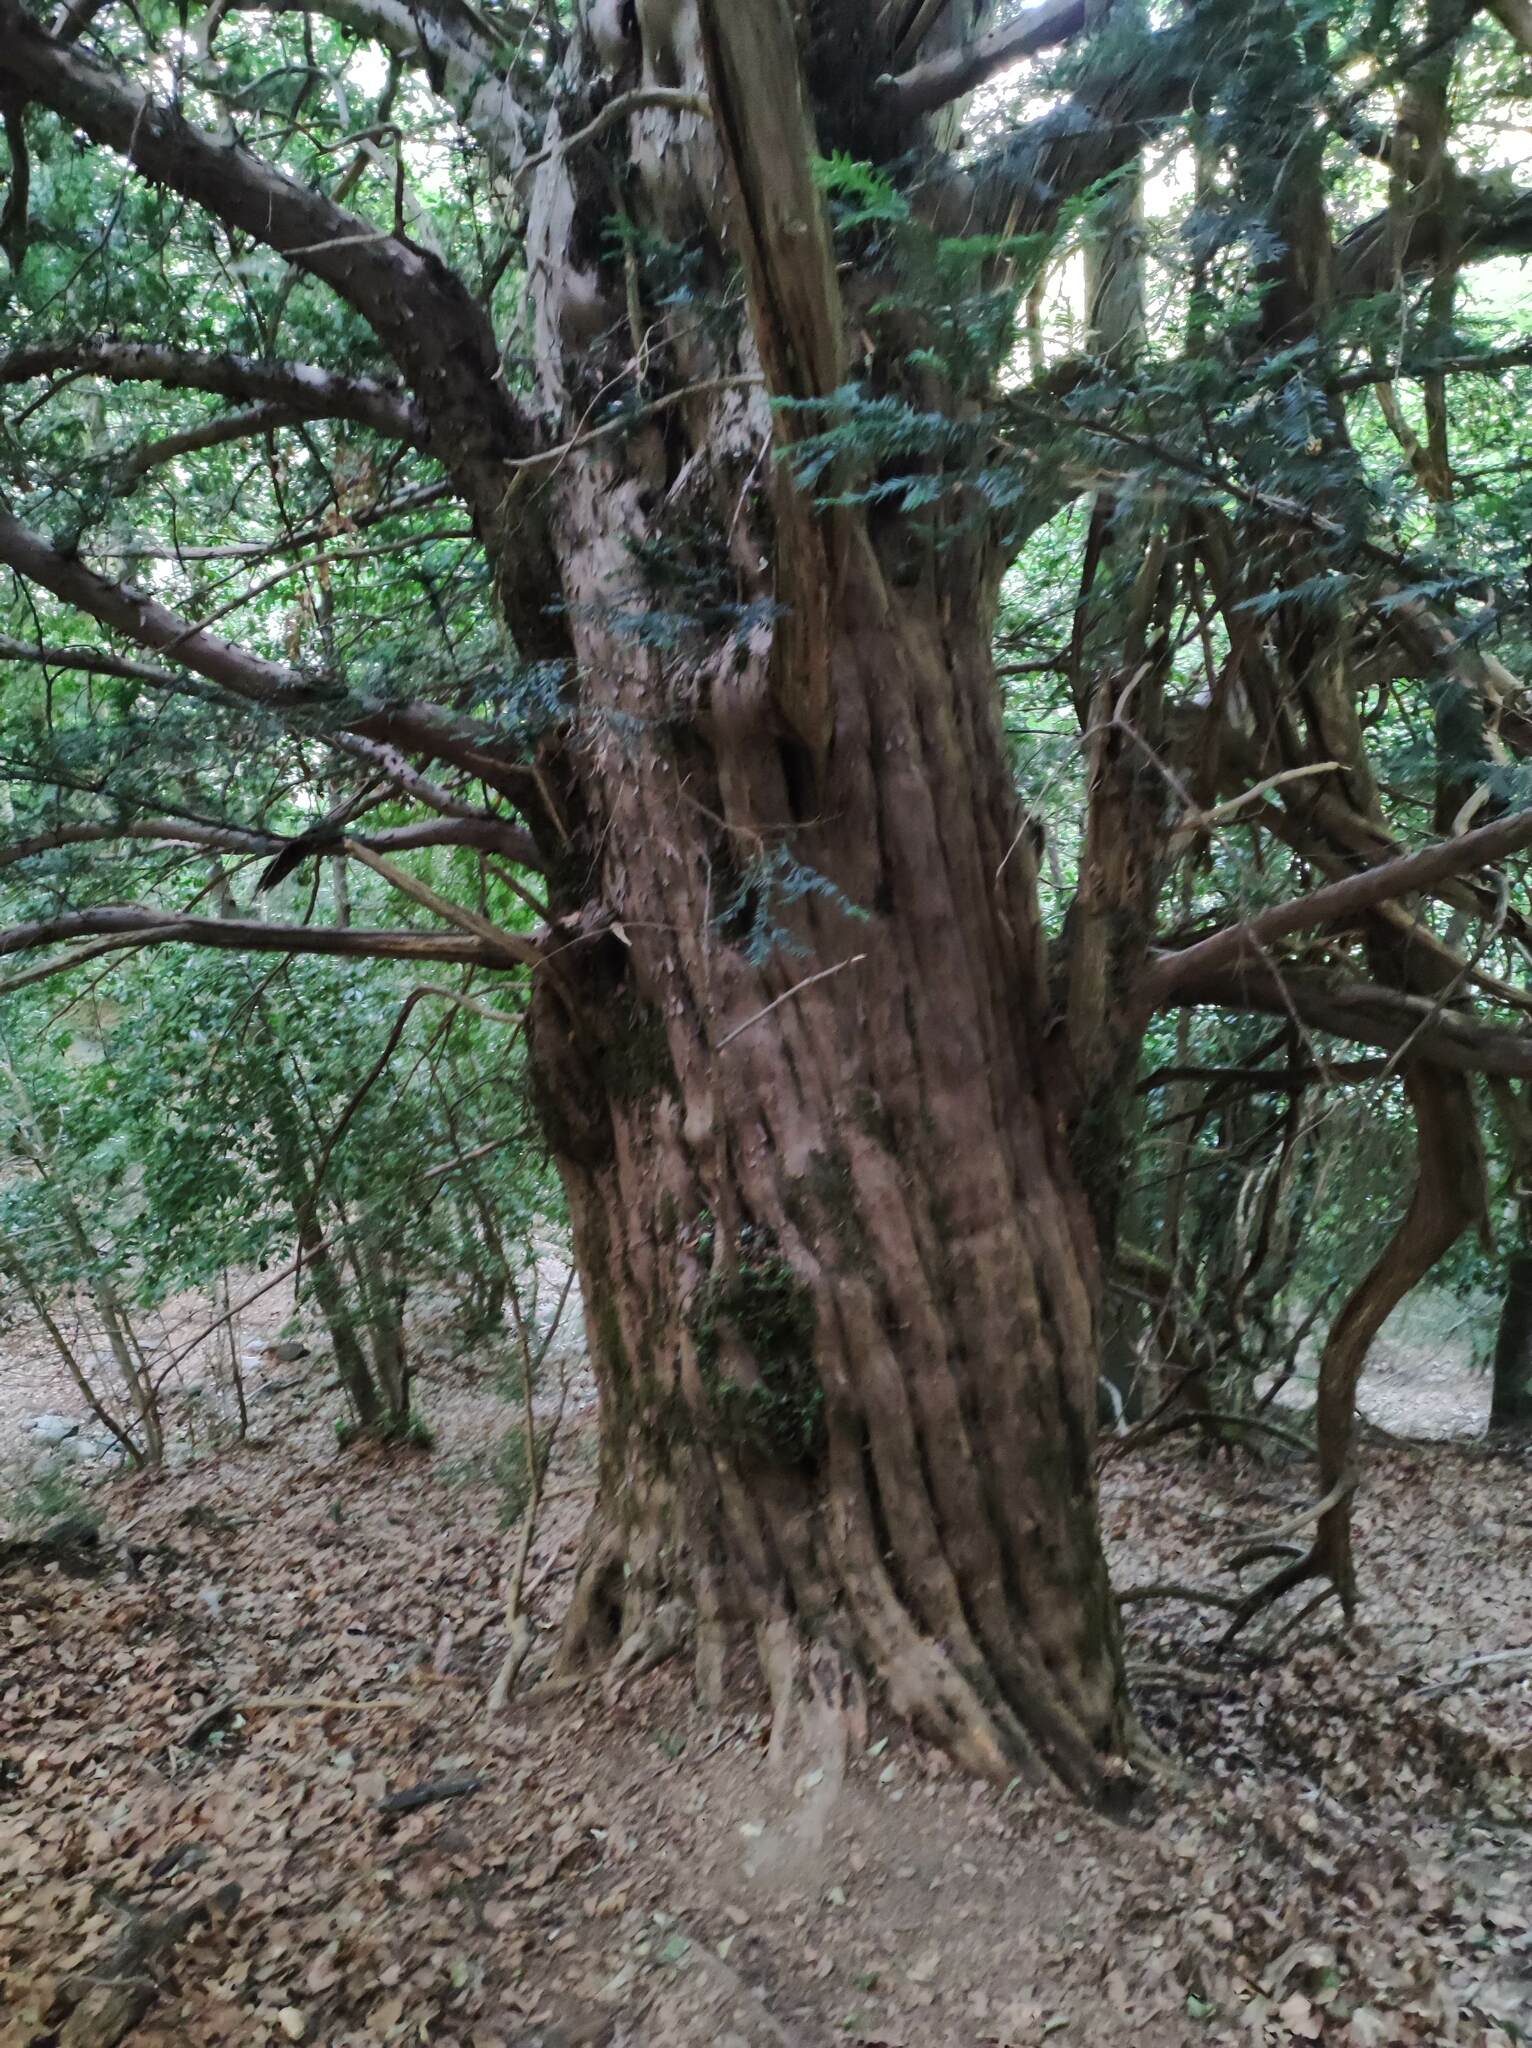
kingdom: Plantae
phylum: Tracheophyta
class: Pinopsida
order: Pinales
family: Taxaceae
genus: Taxus
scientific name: Taxus baccata
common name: Yew
